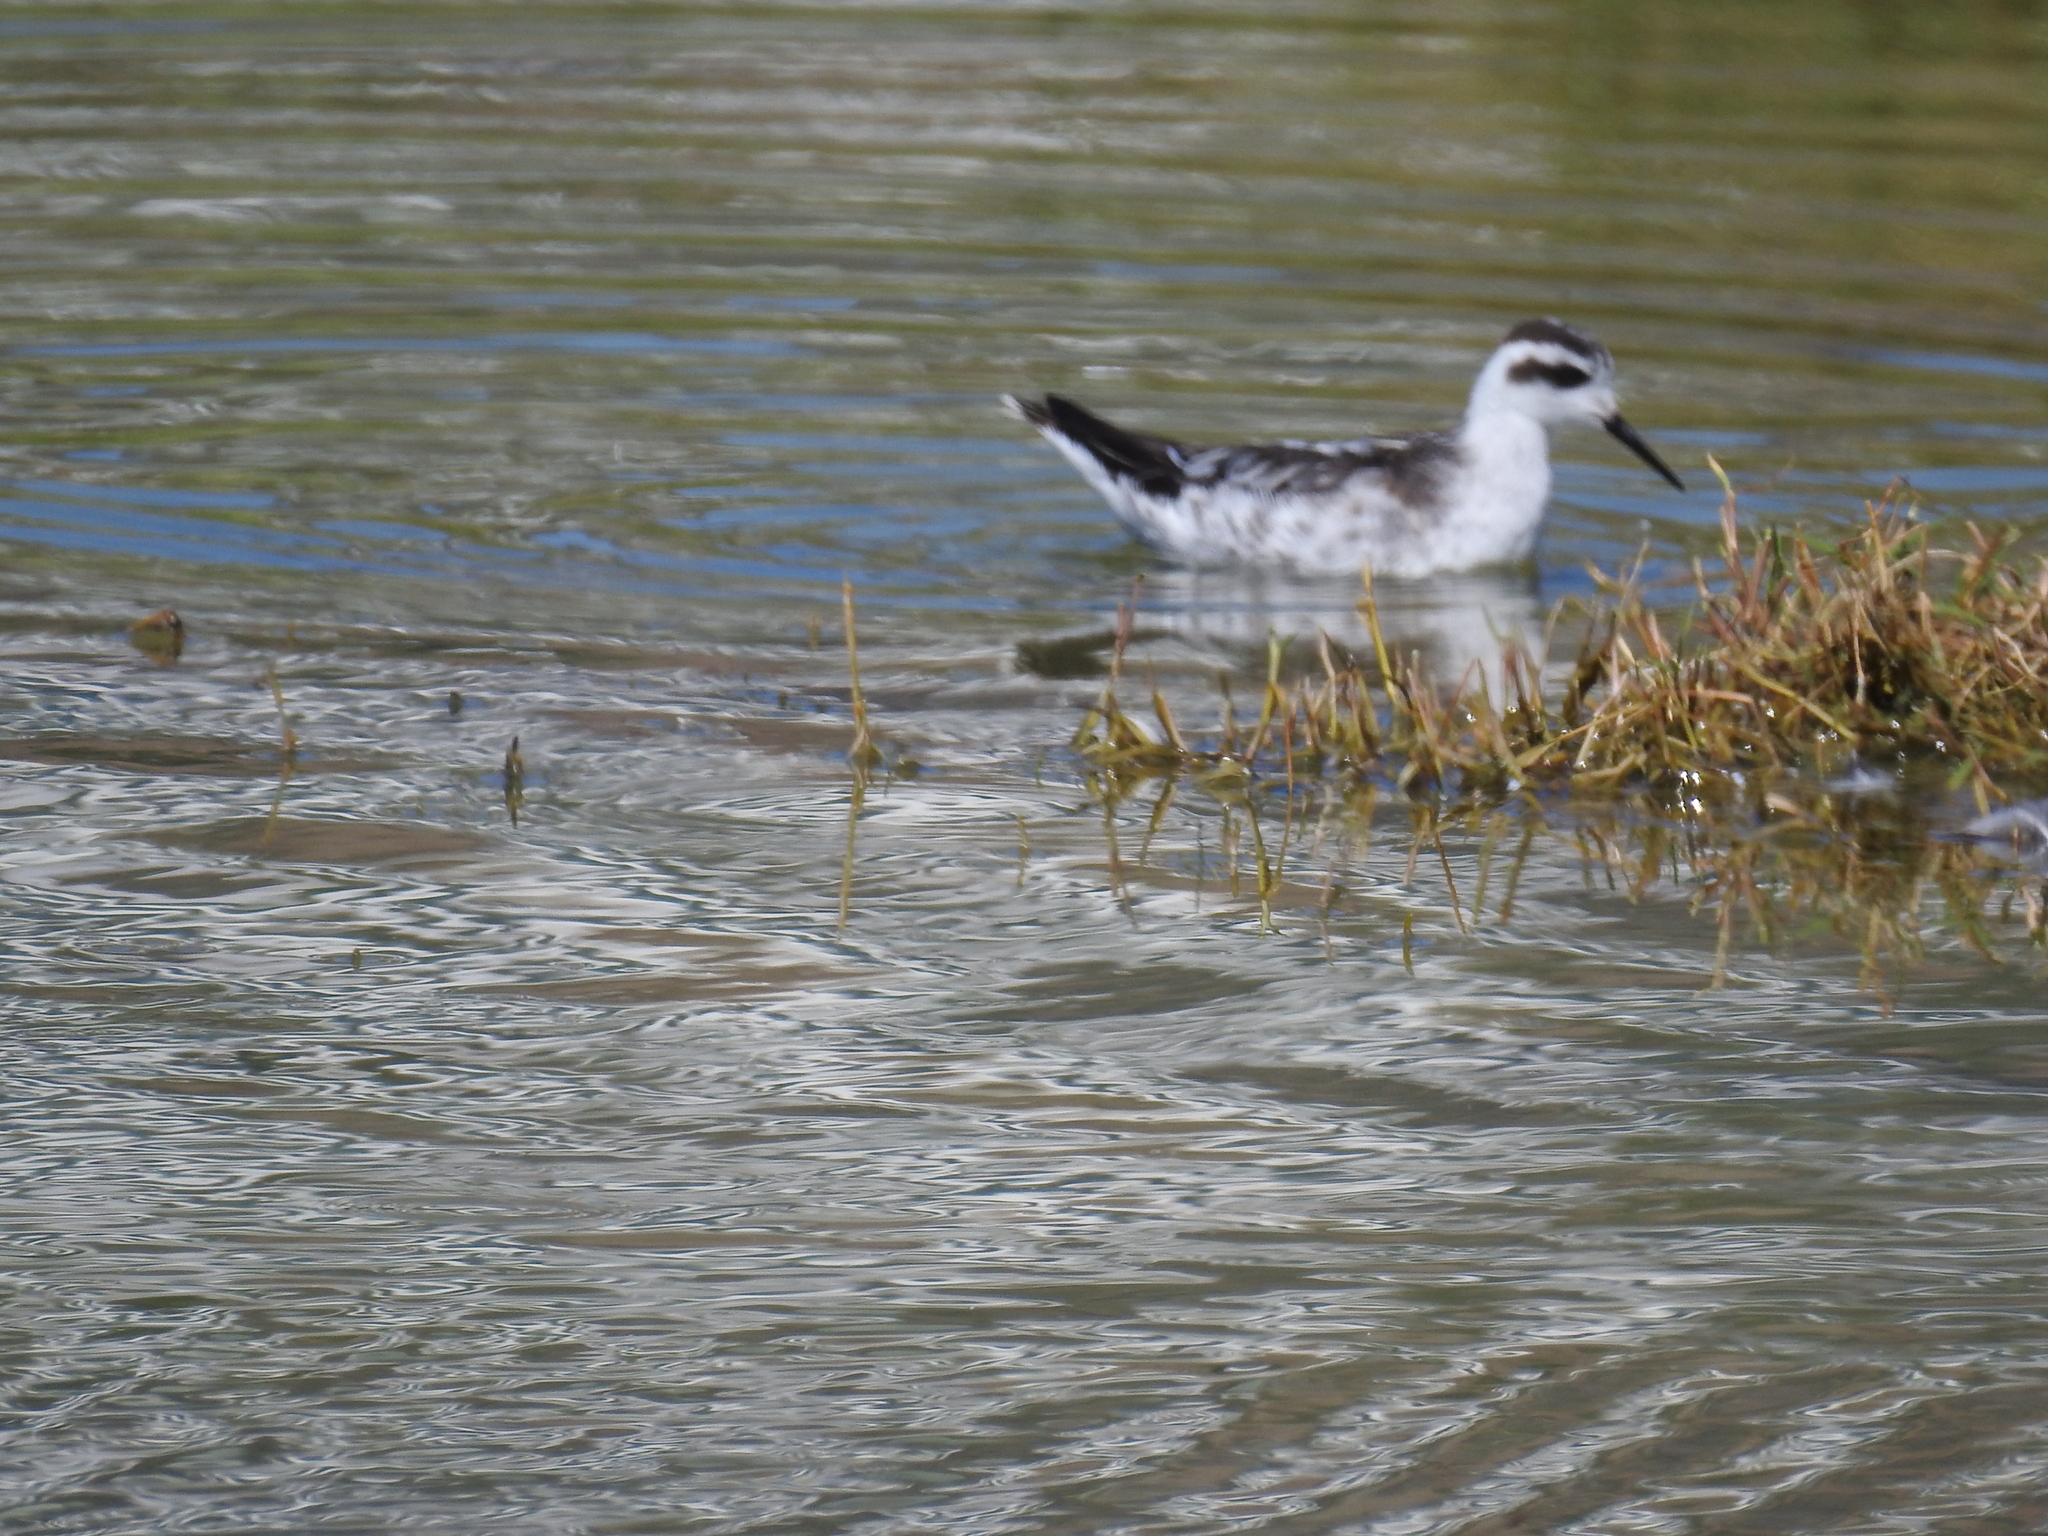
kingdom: Animalia
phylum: Chordata
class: Aves
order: Charadriiformes
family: Scolopacidae
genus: Phalaropus
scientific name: Phalaropus lobatus
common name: Red-necked phalarope
